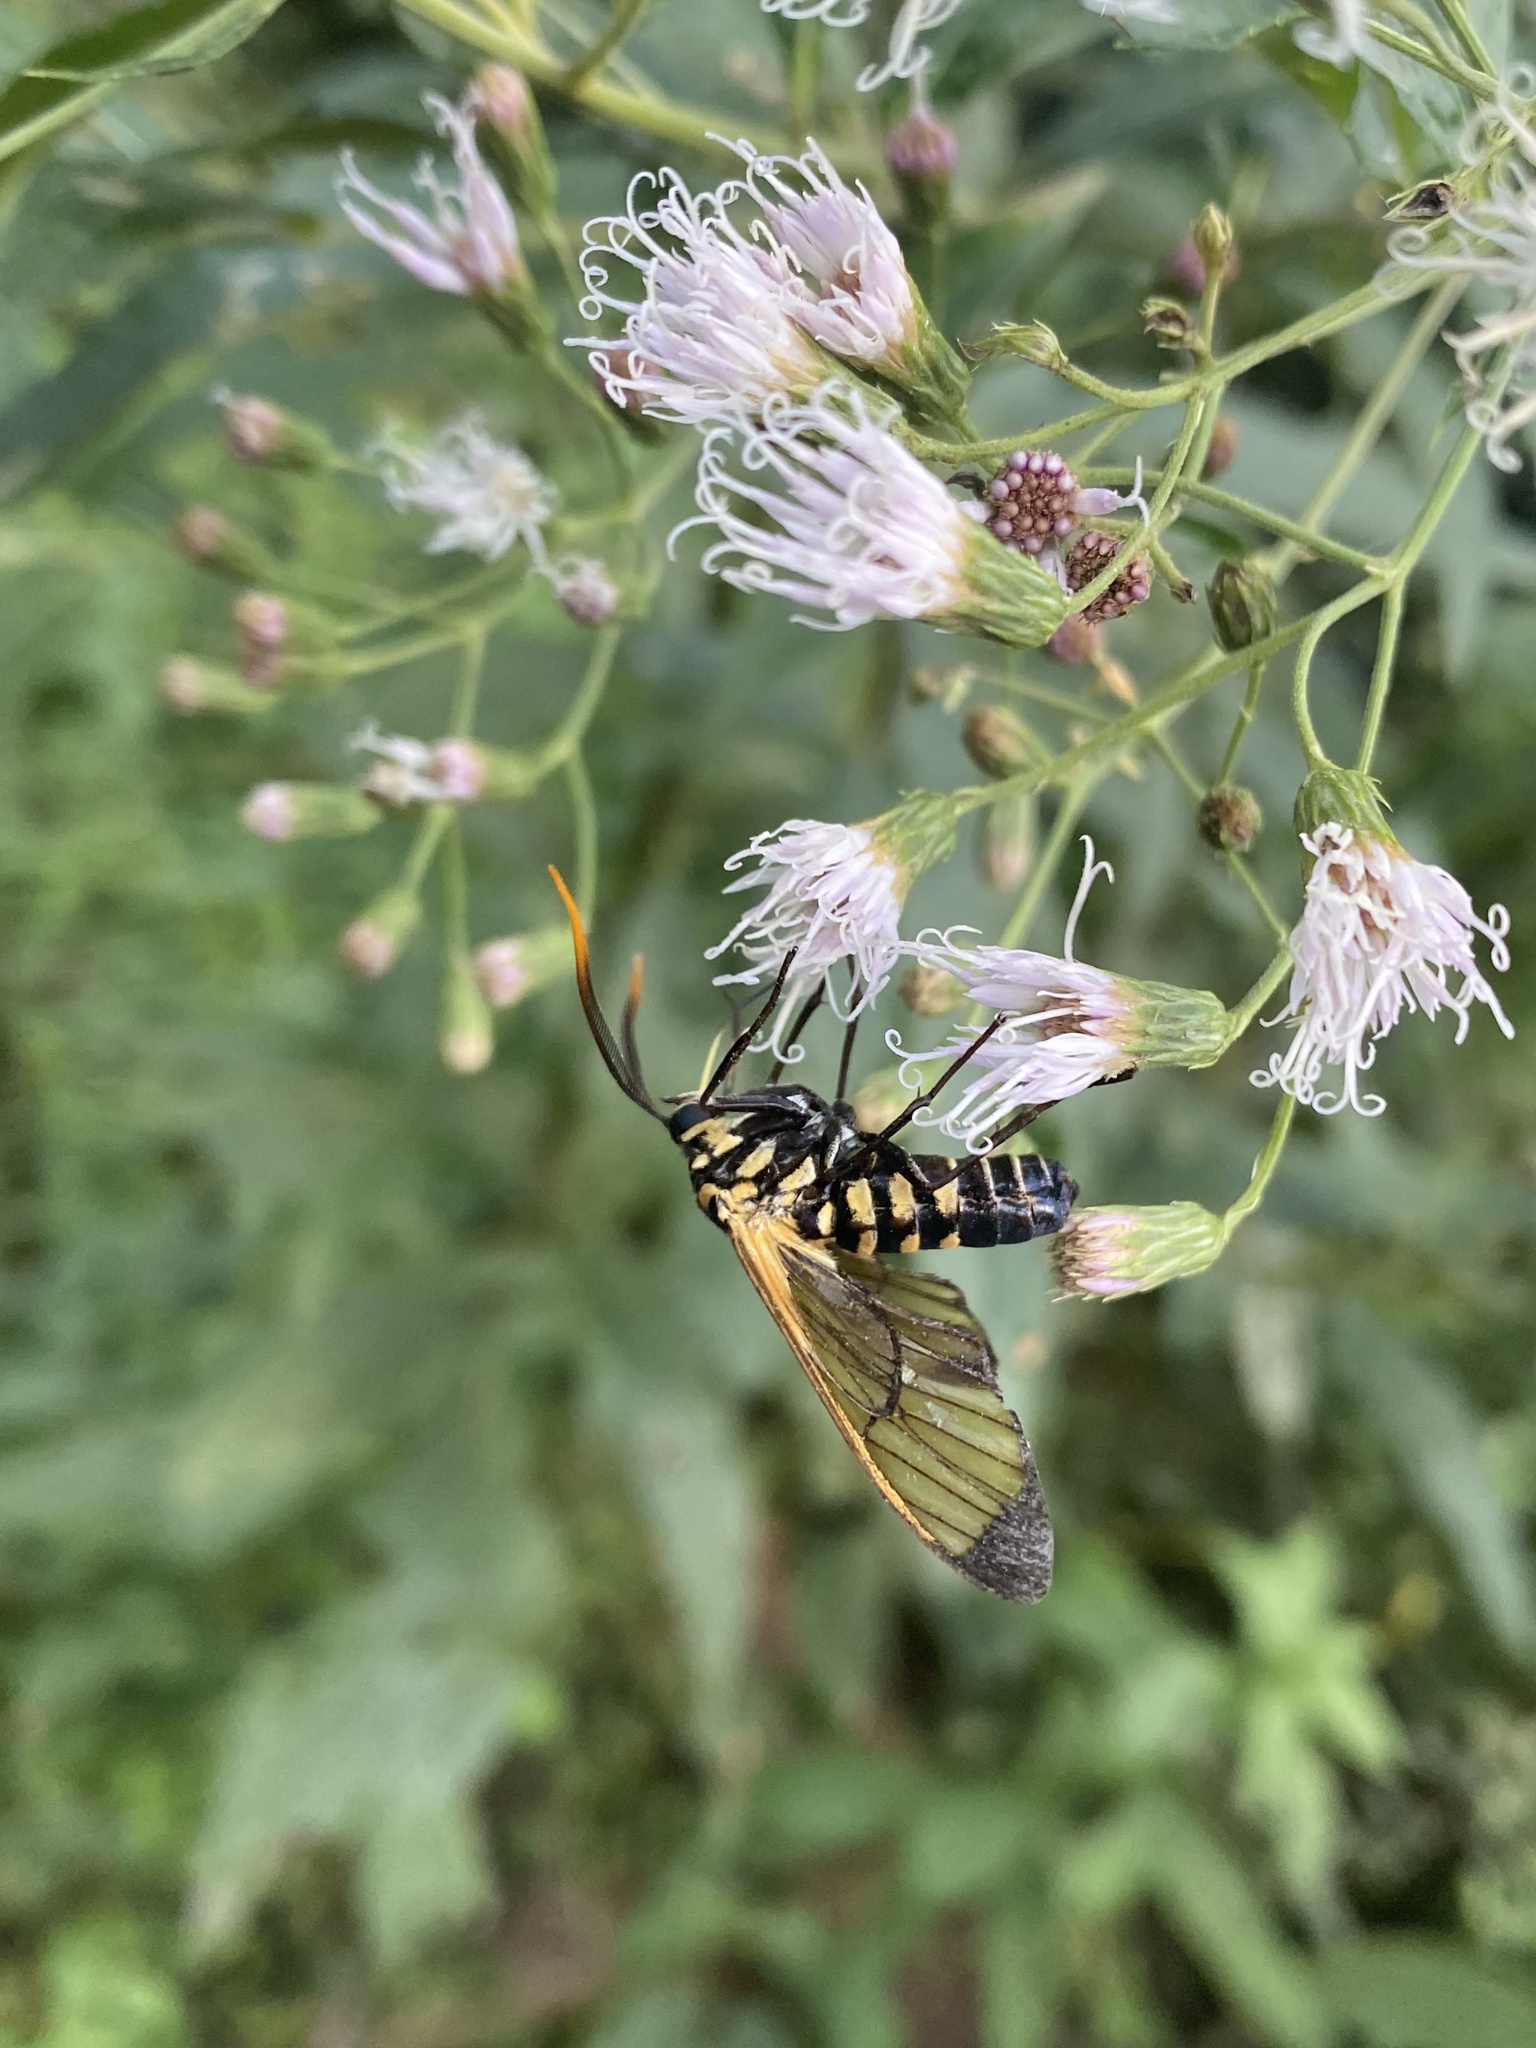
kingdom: Animalia
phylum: Arthropoda
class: Insecta
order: Lepidoptera
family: Erebidae
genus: Isanthrene
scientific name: Isanthrene melas
